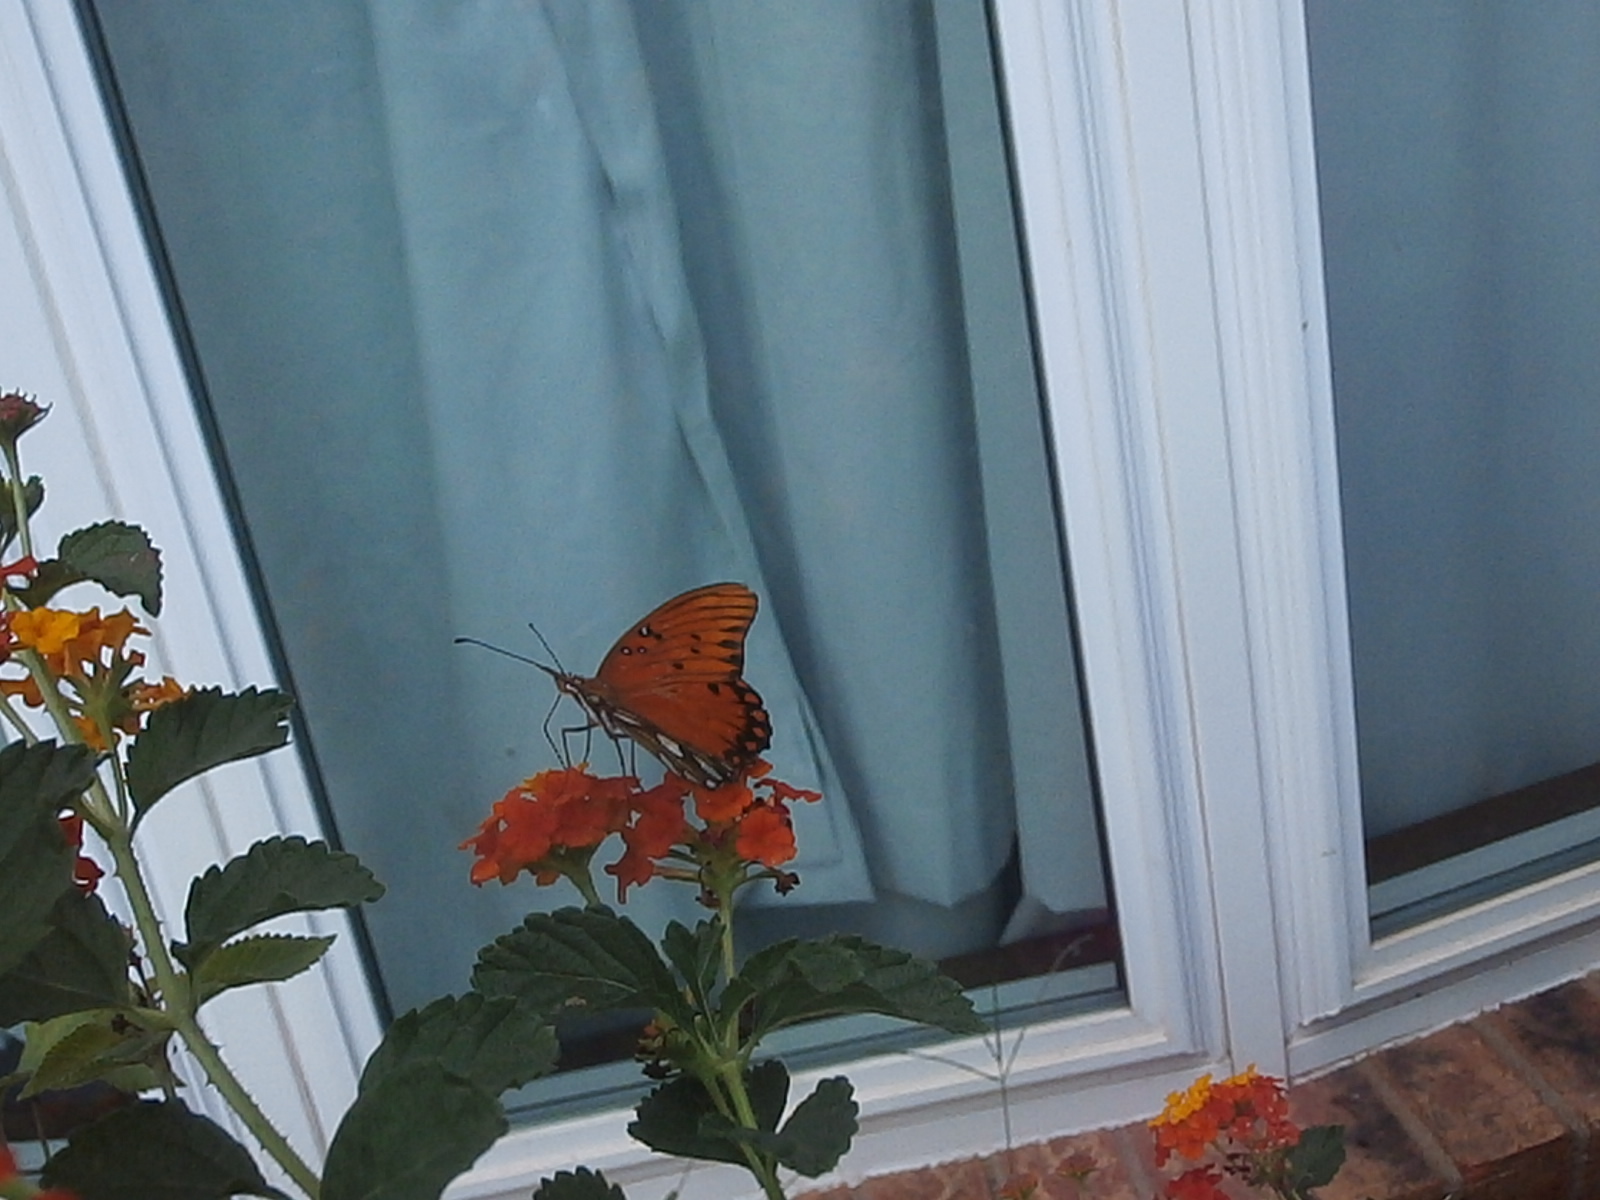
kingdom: Animalia
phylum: Arthropoda
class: Insecta
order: Lepidoptera
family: Nymphalidae
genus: Dione
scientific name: Dione vanillae
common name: Gulf fritillary
